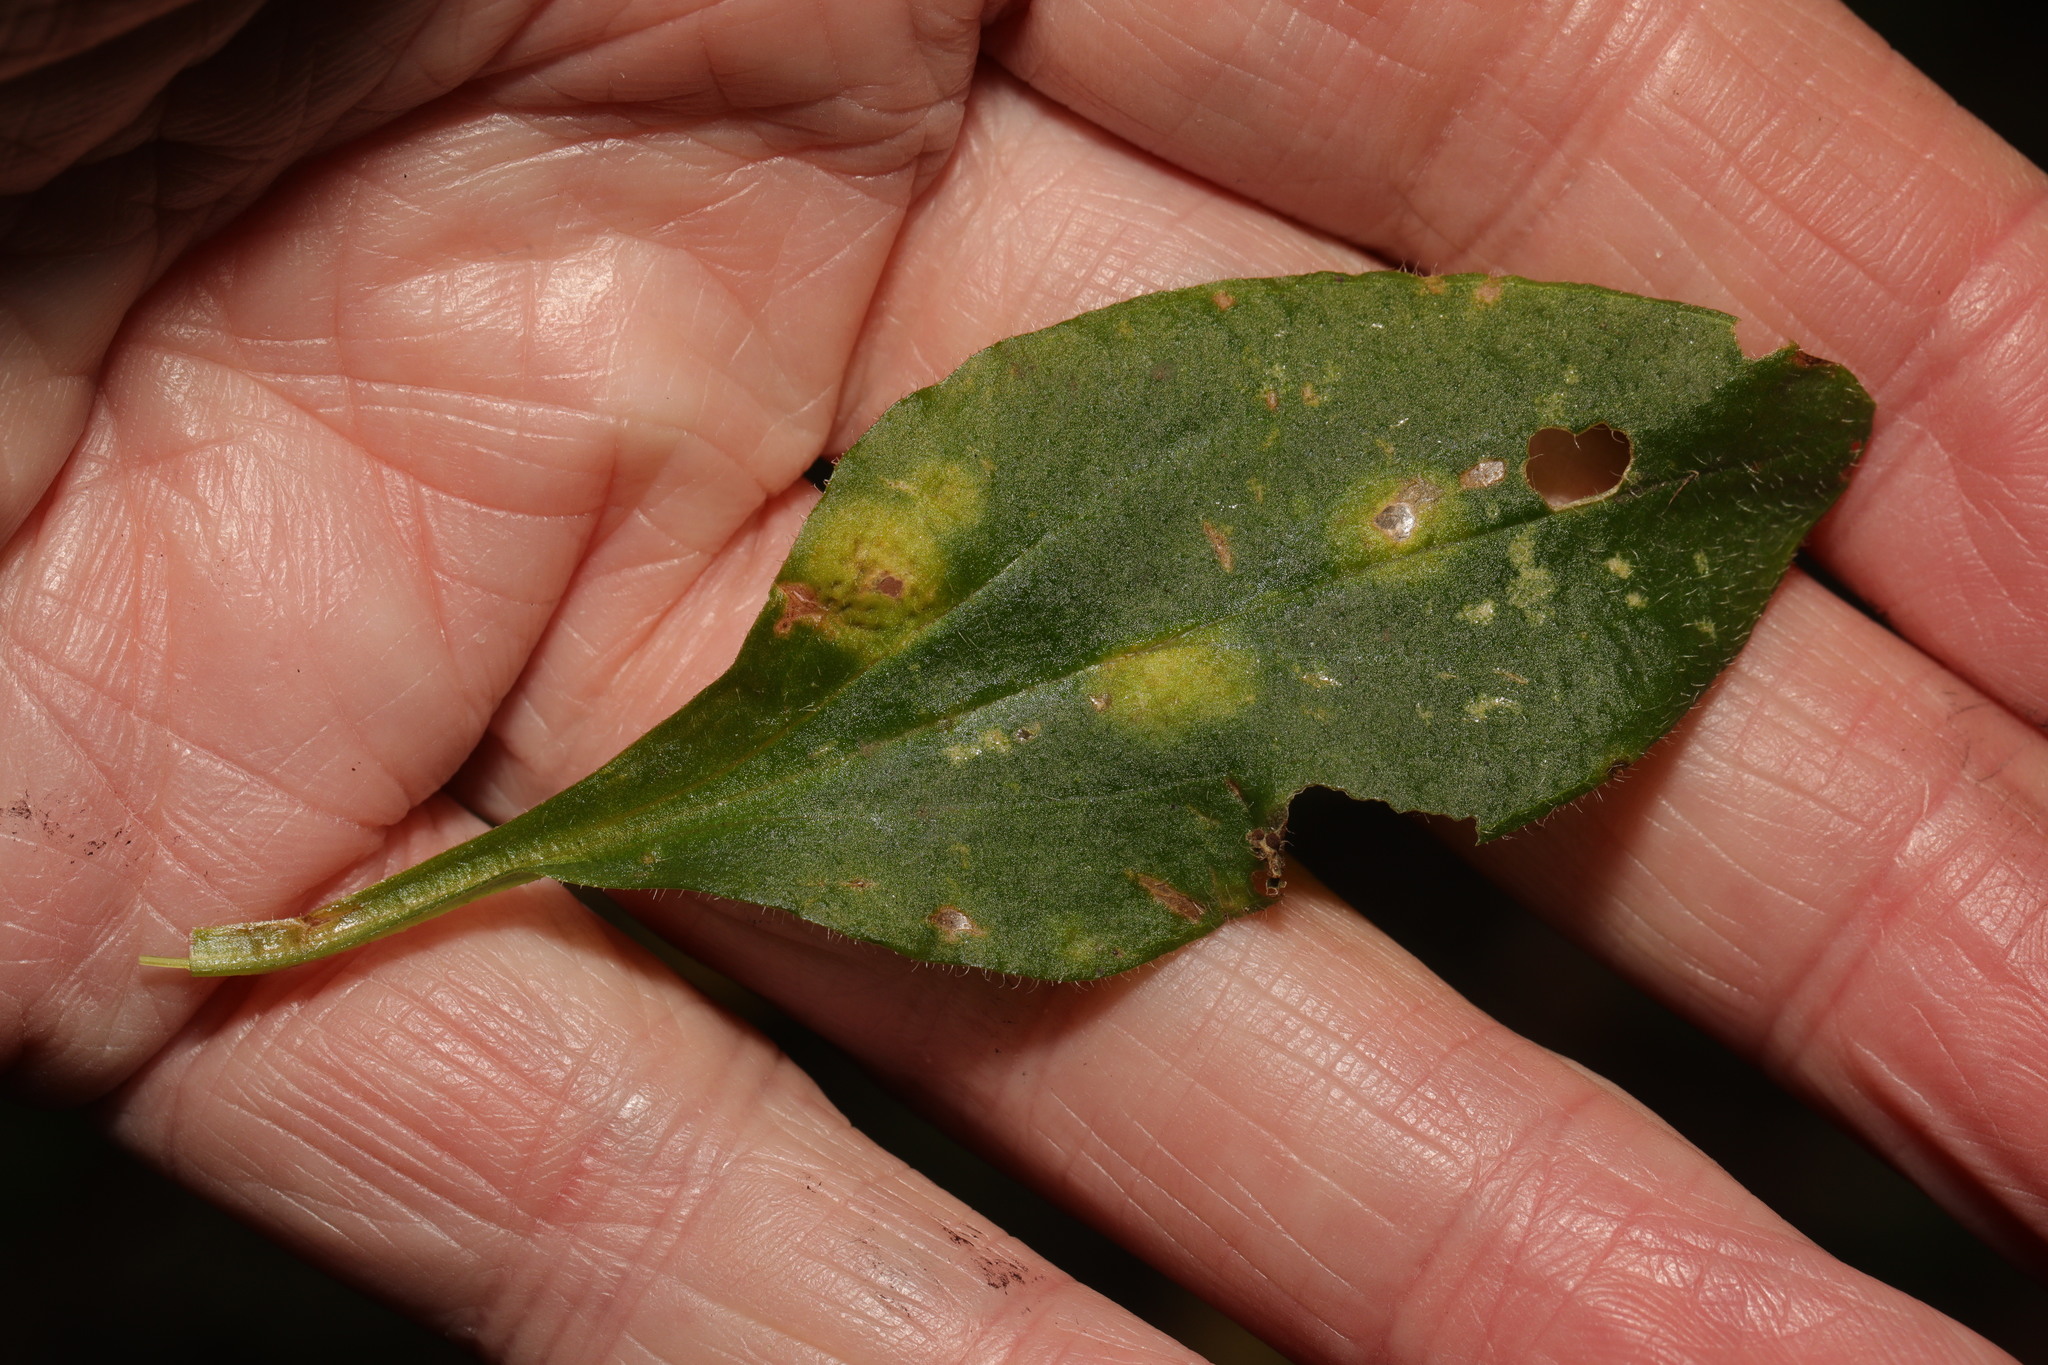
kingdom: Fungi
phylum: Basidiomycota
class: Pucciniomycetes
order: Pucciniales
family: Pucciniaceae
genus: Puccinia
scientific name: Puccinia arenariae
